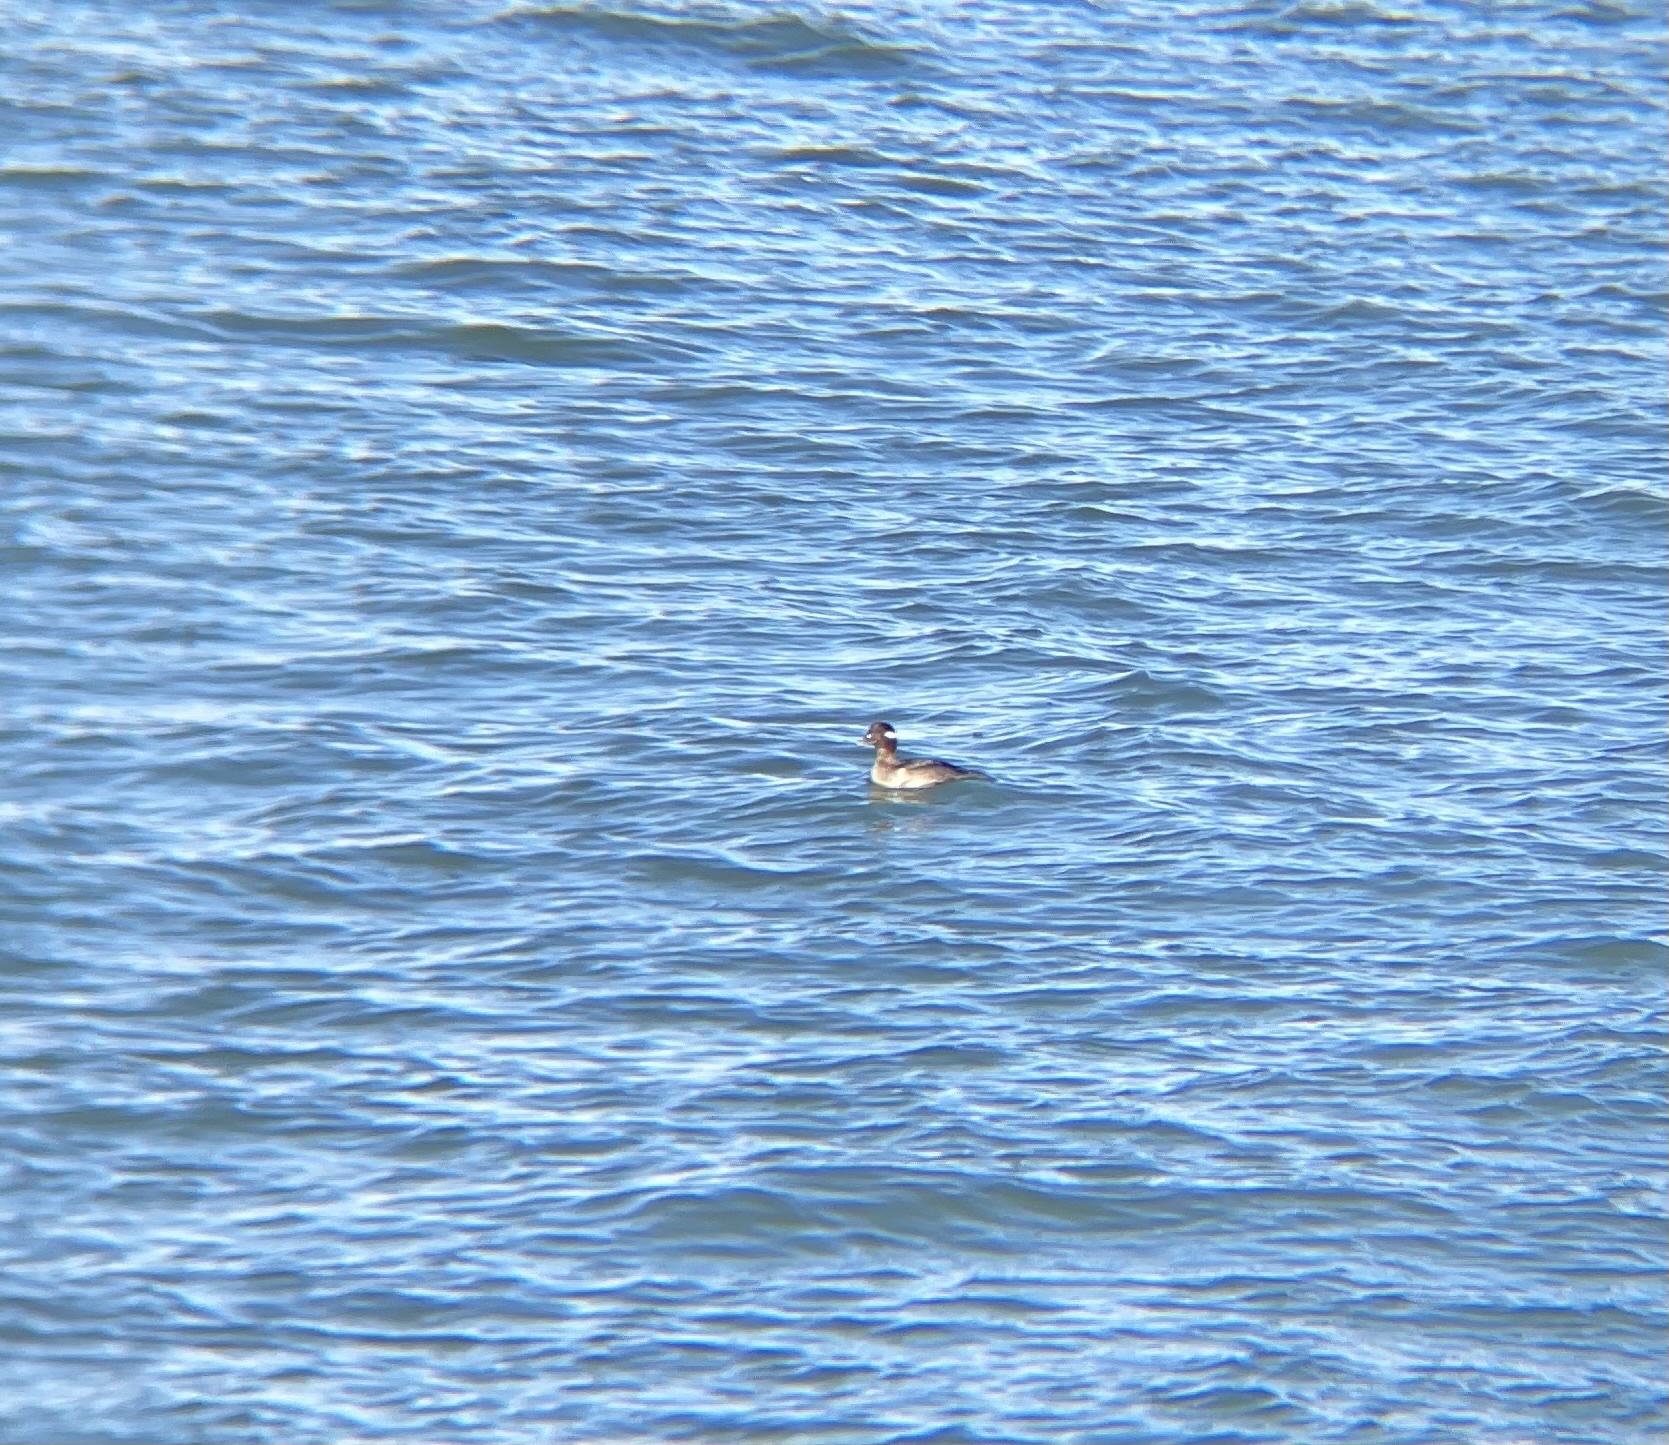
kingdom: Animalia
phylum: Chordata
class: Aves
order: Anseriformes
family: Anatidae
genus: Bucephala
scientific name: Bucephala albeola
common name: Bufflehead
